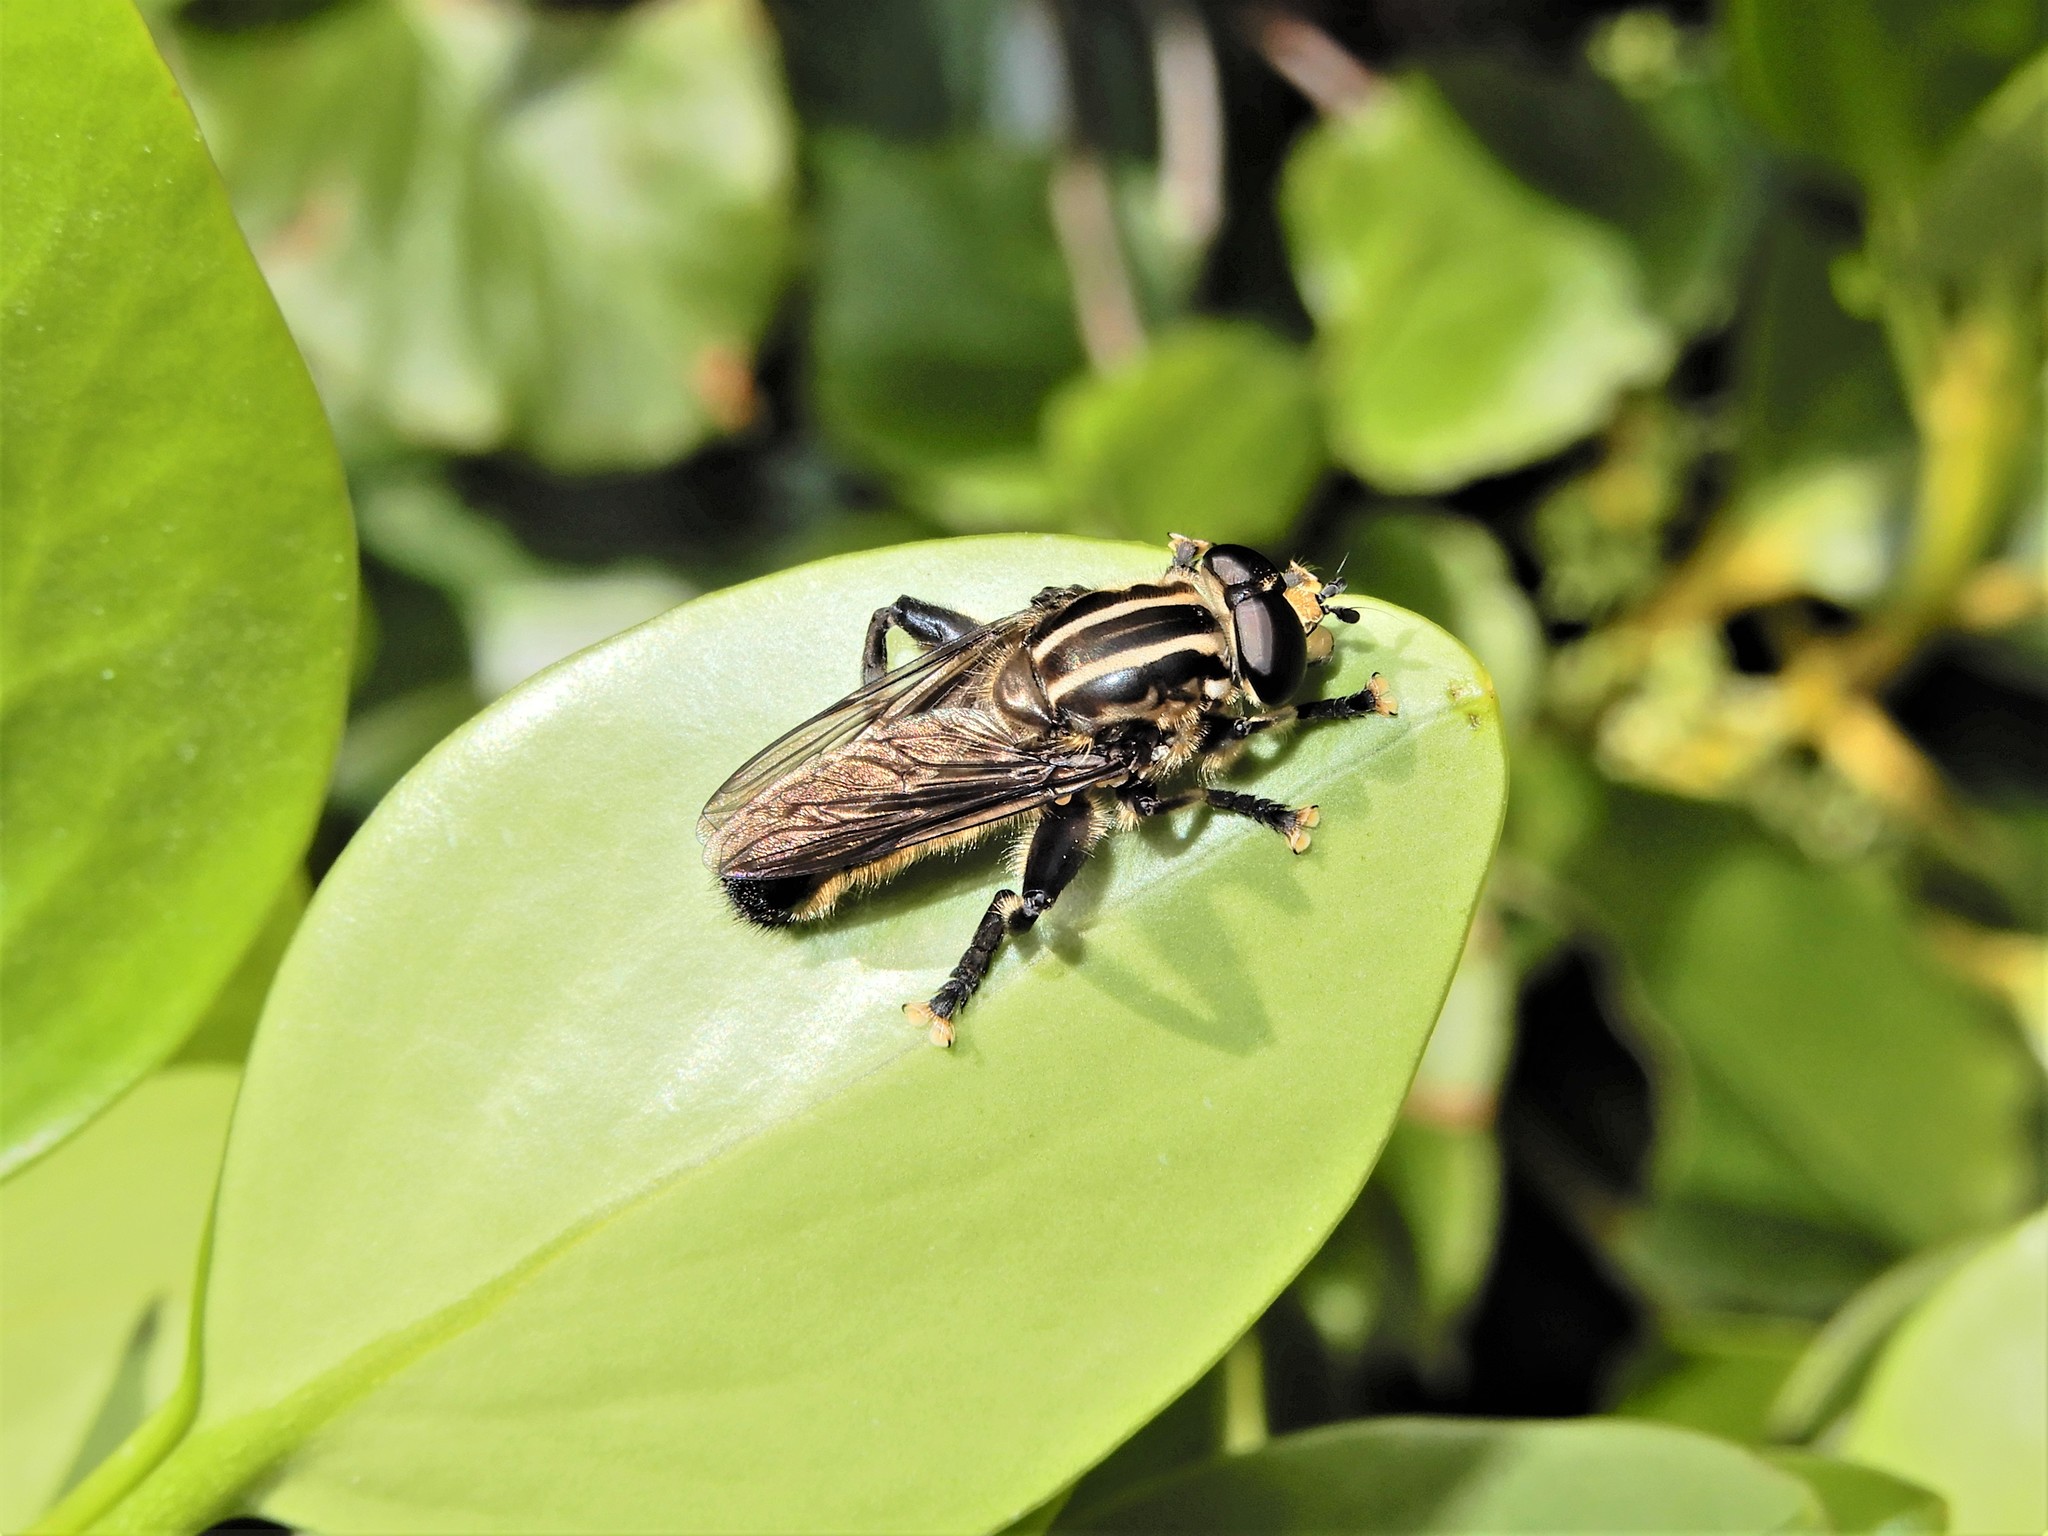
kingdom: Animalia
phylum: Arthropoda
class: Insecta
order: Diptera
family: Syrphidae
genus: Orthoprosopa
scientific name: Orthoprosopa bilineata
